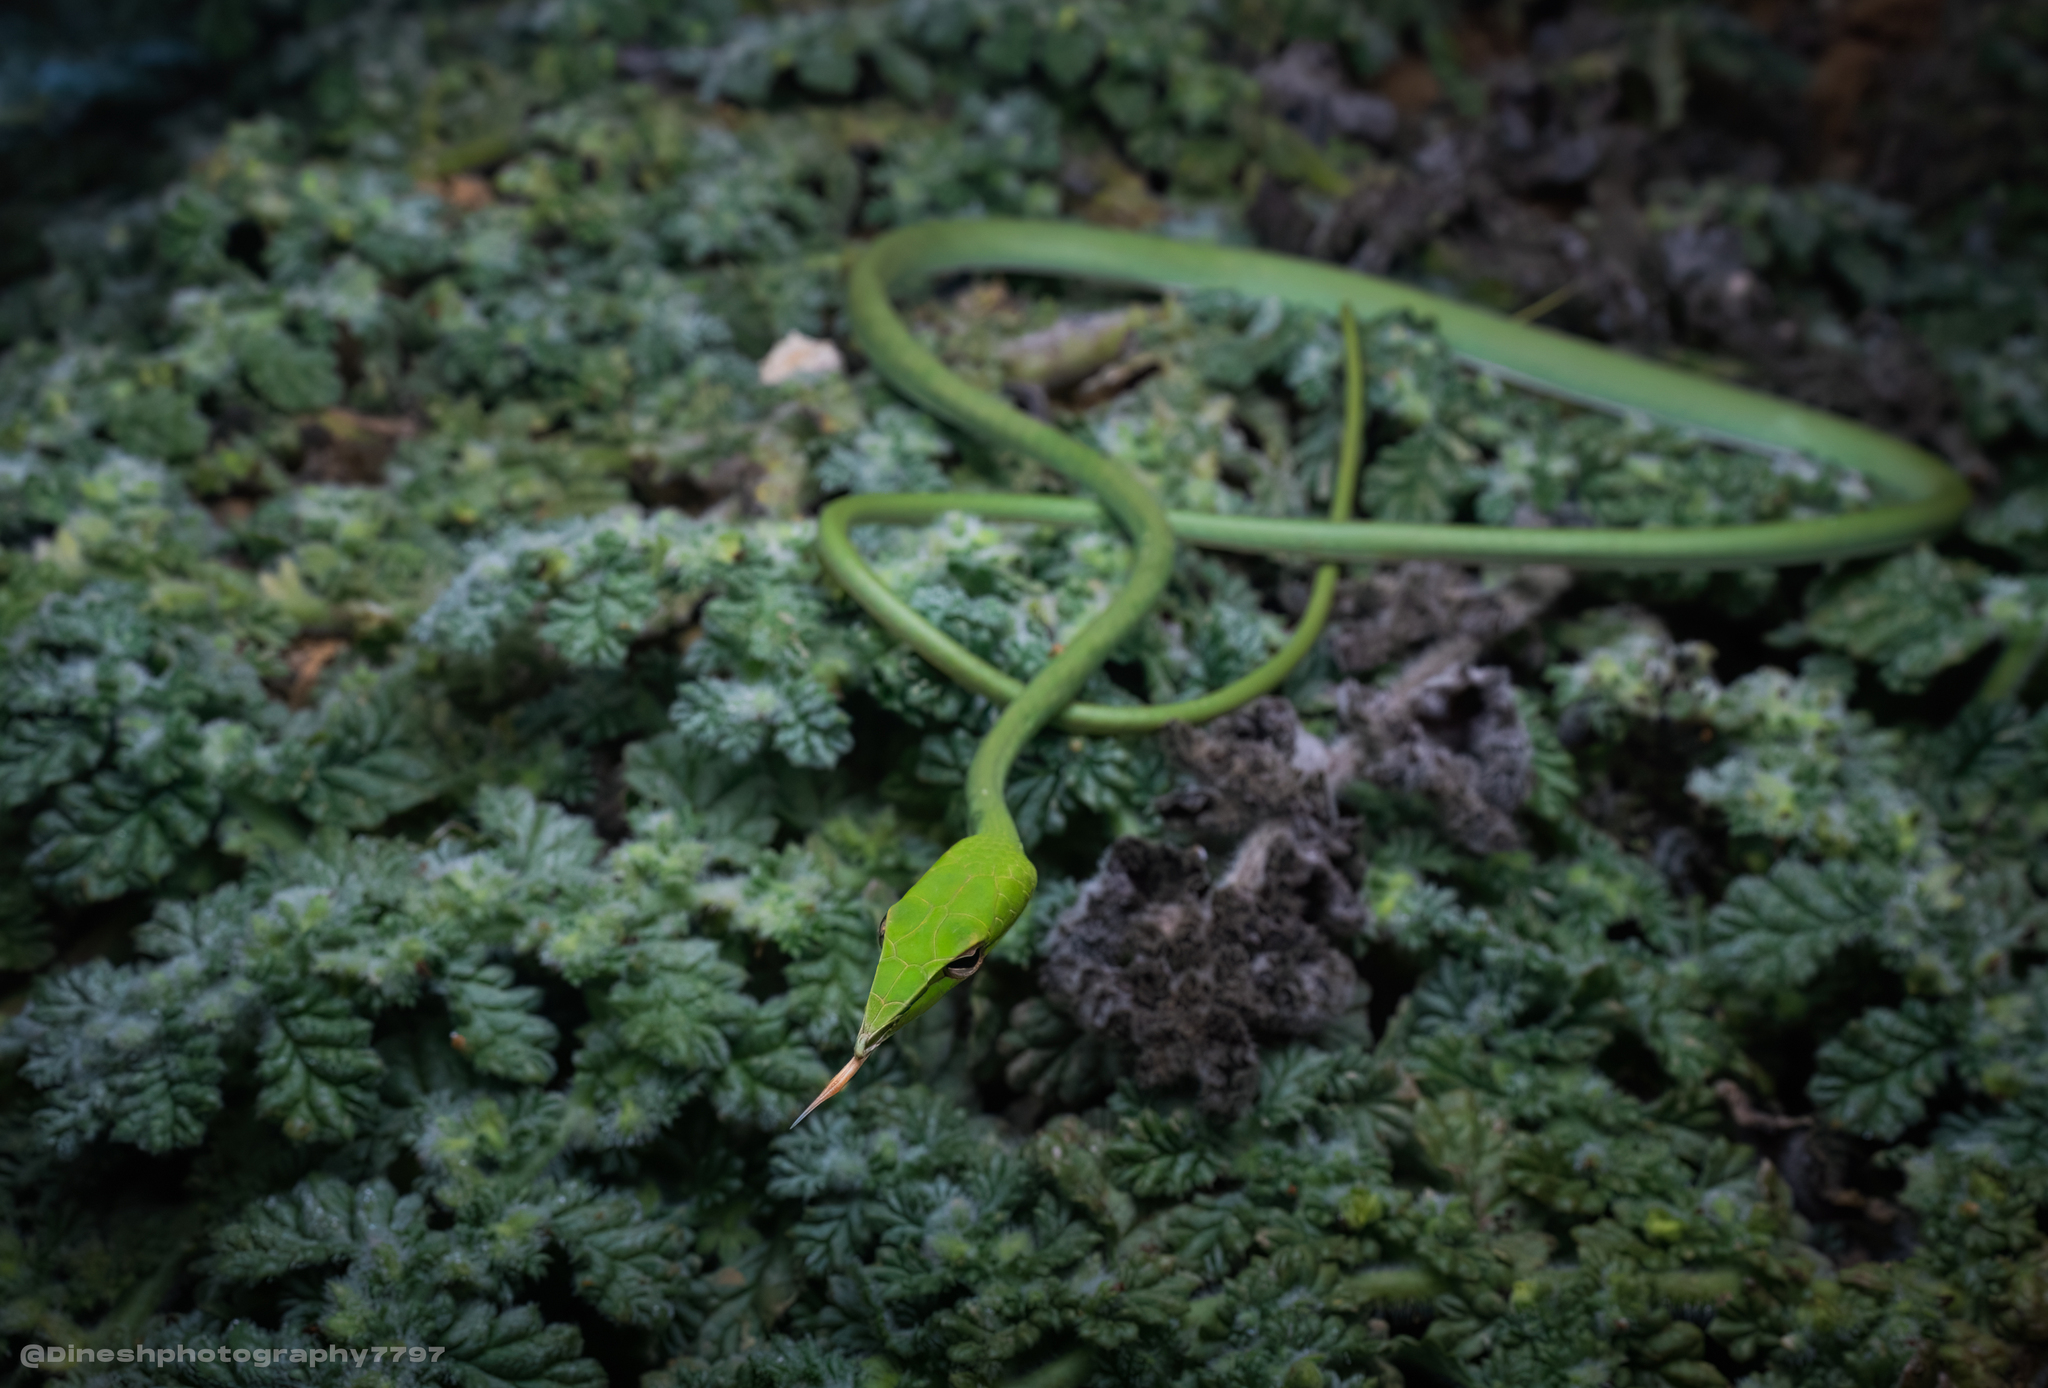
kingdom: Animalia
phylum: Chordata
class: Squamata
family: Colubridae
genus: Ahaetulla
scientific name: Ahaetulla oxyrhyncha
